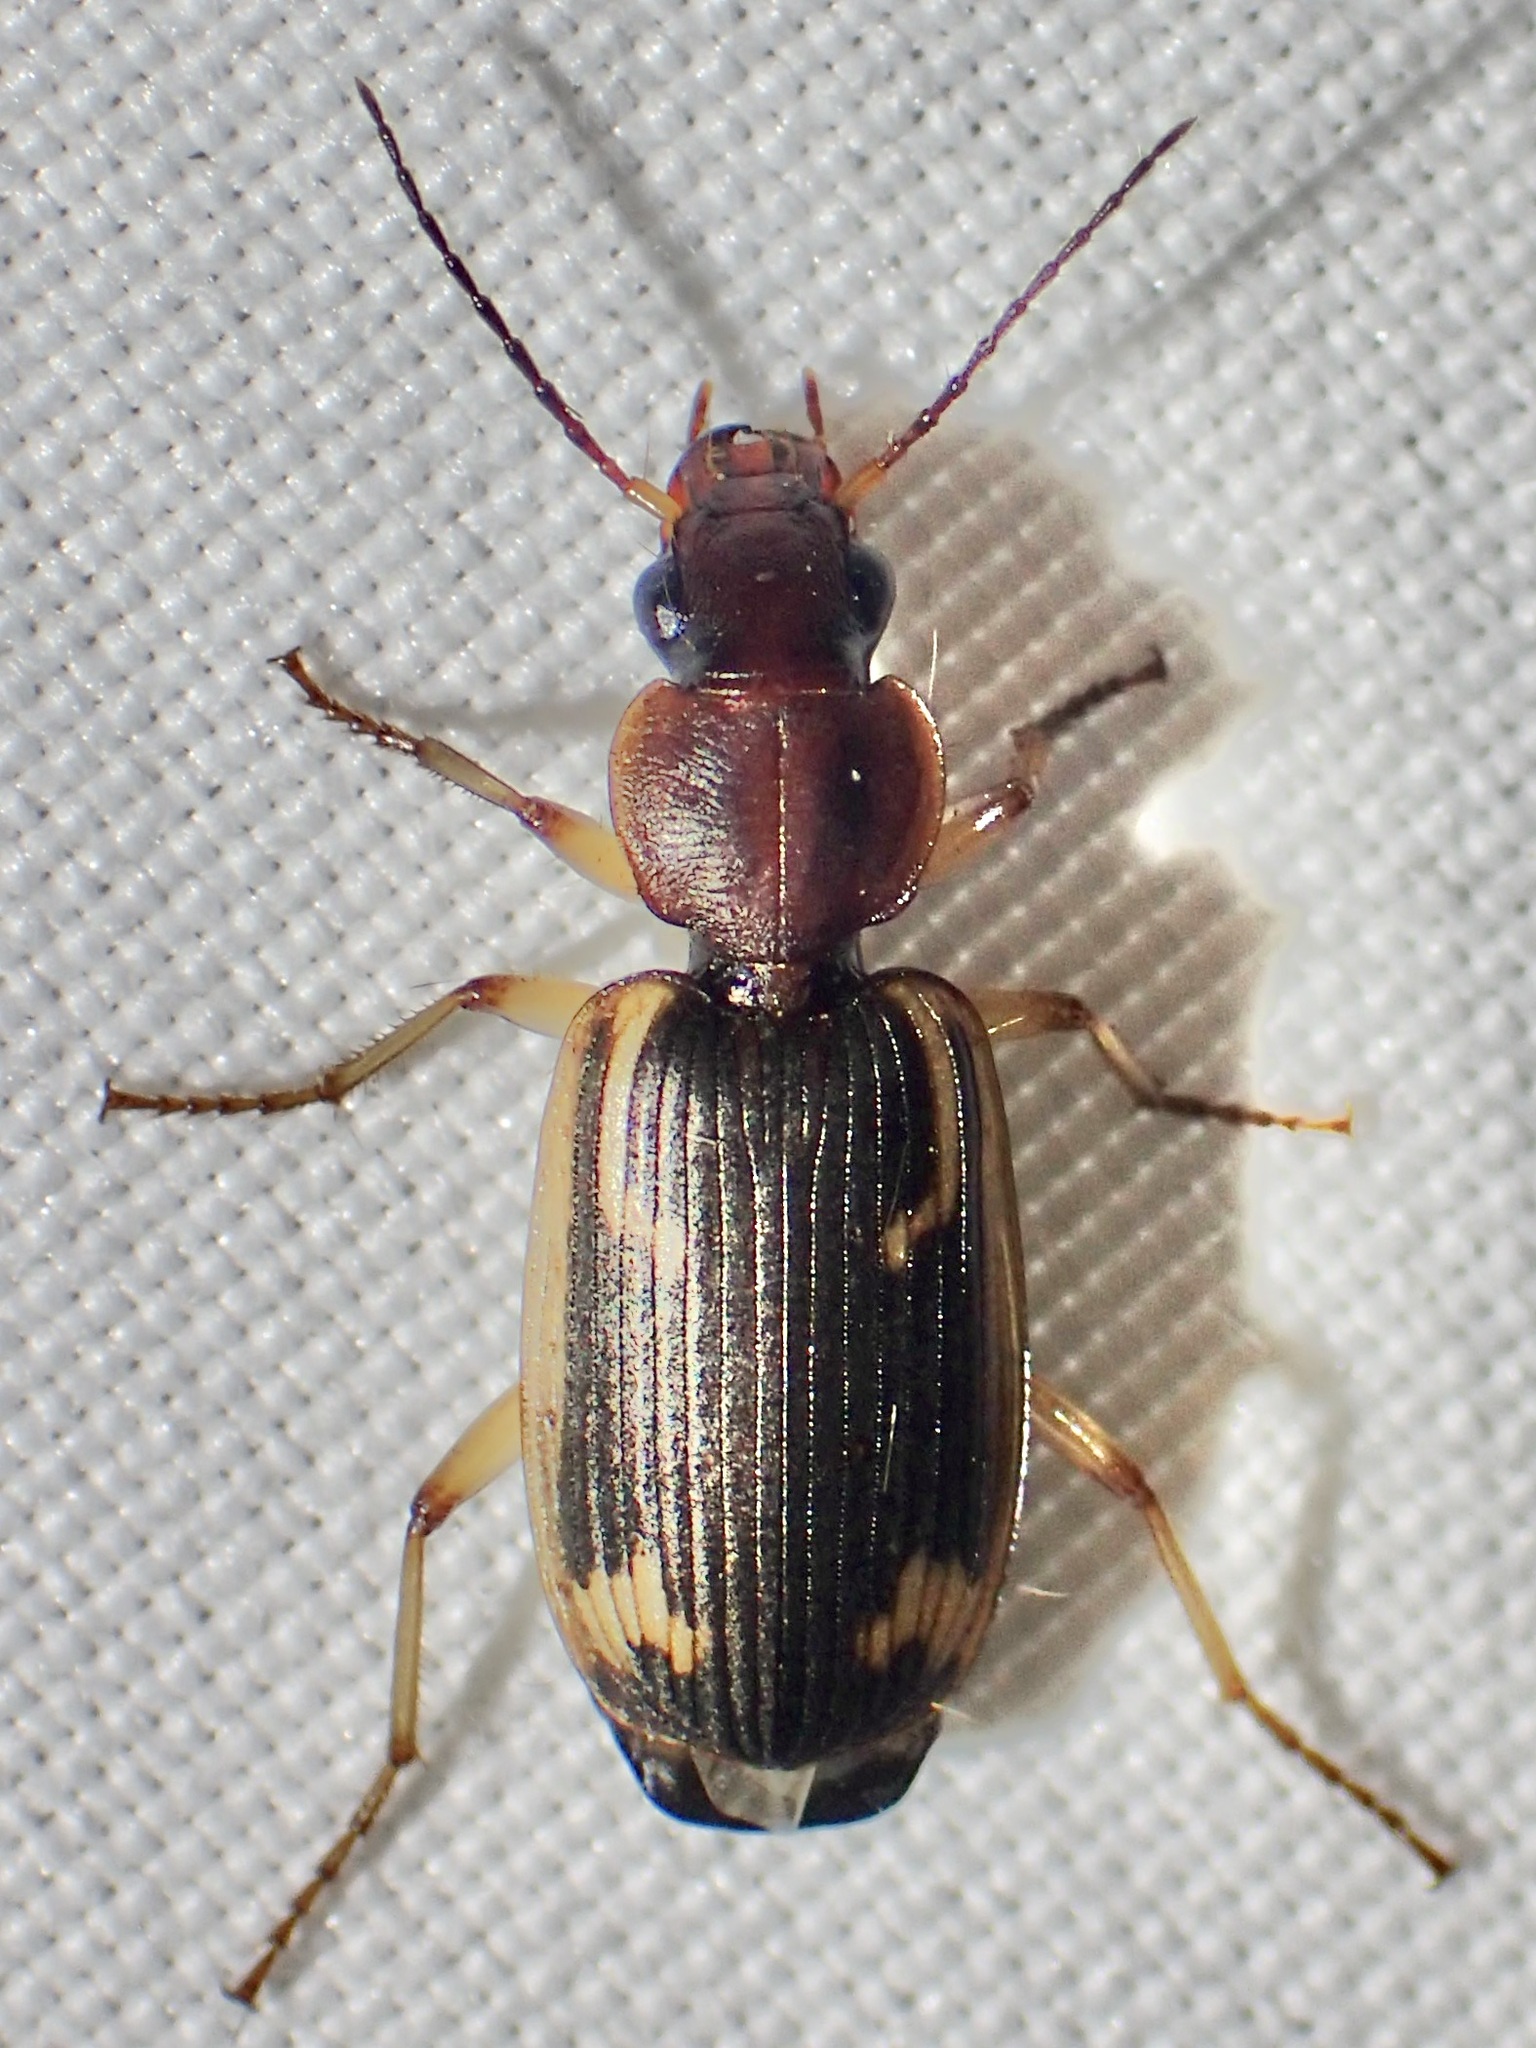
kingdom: Animalia
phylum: Arthropoda
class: Insecta
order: Coleoptera
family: Carabidae
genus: Apenes
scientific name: Apenes hilariola
